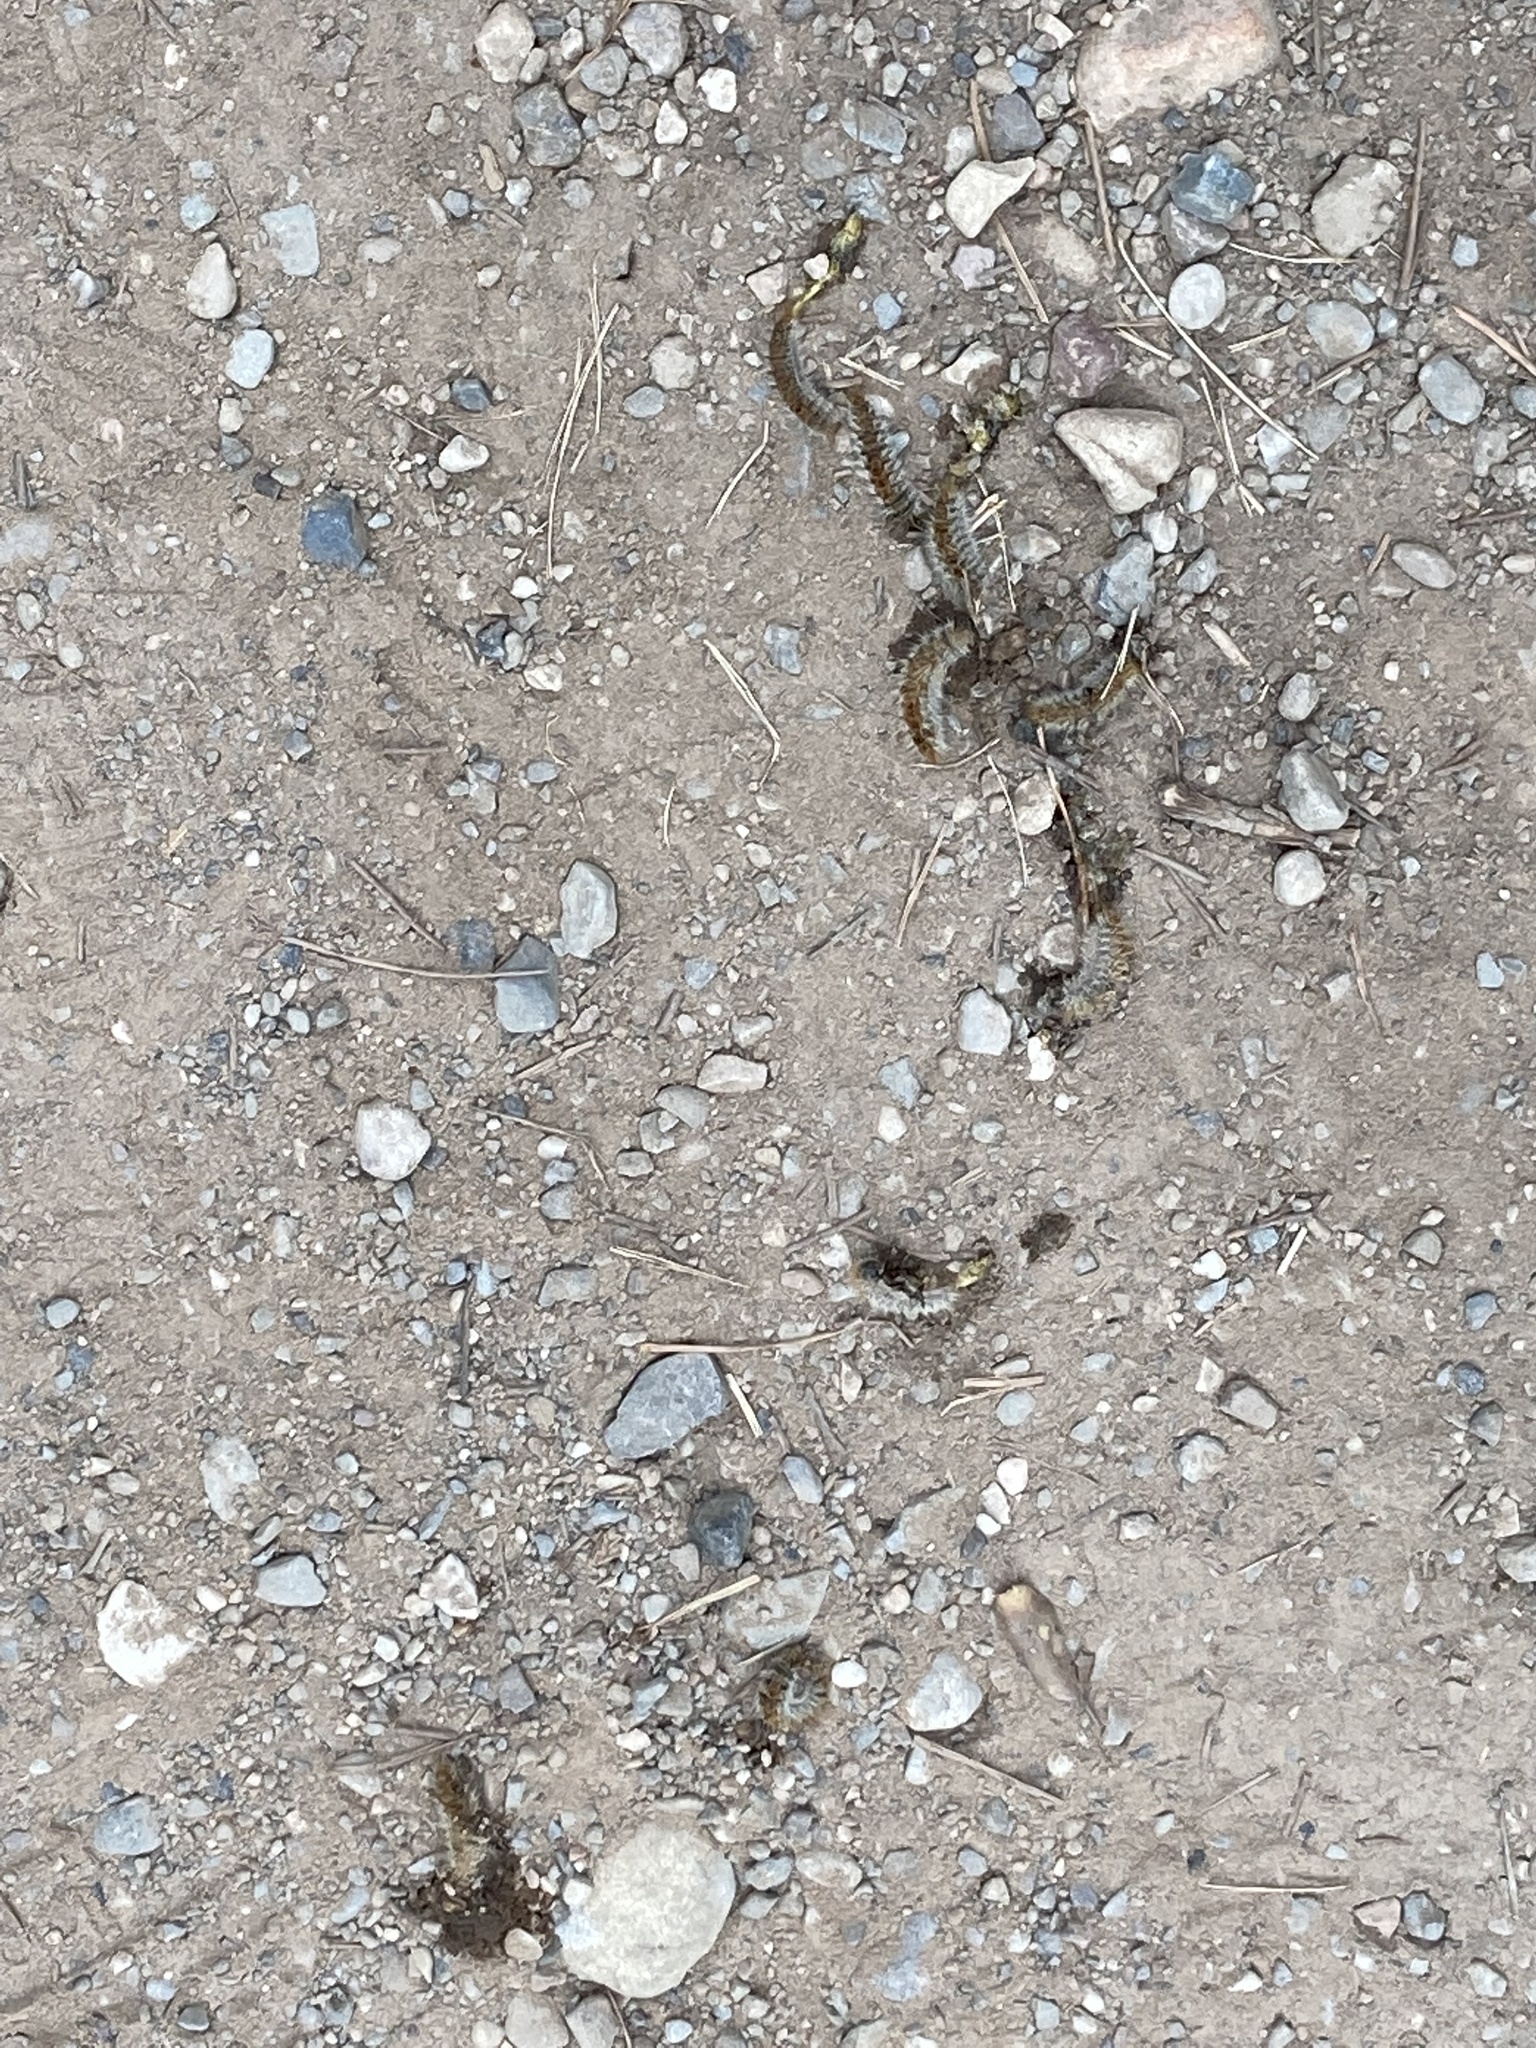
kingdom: Animalia
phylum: Arthropoda
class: Insecta
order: Lepidoptera
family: Notodontidae
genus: Thaumetopoea
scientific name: Thaumetopoea pityocampa
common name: Pine processionary
